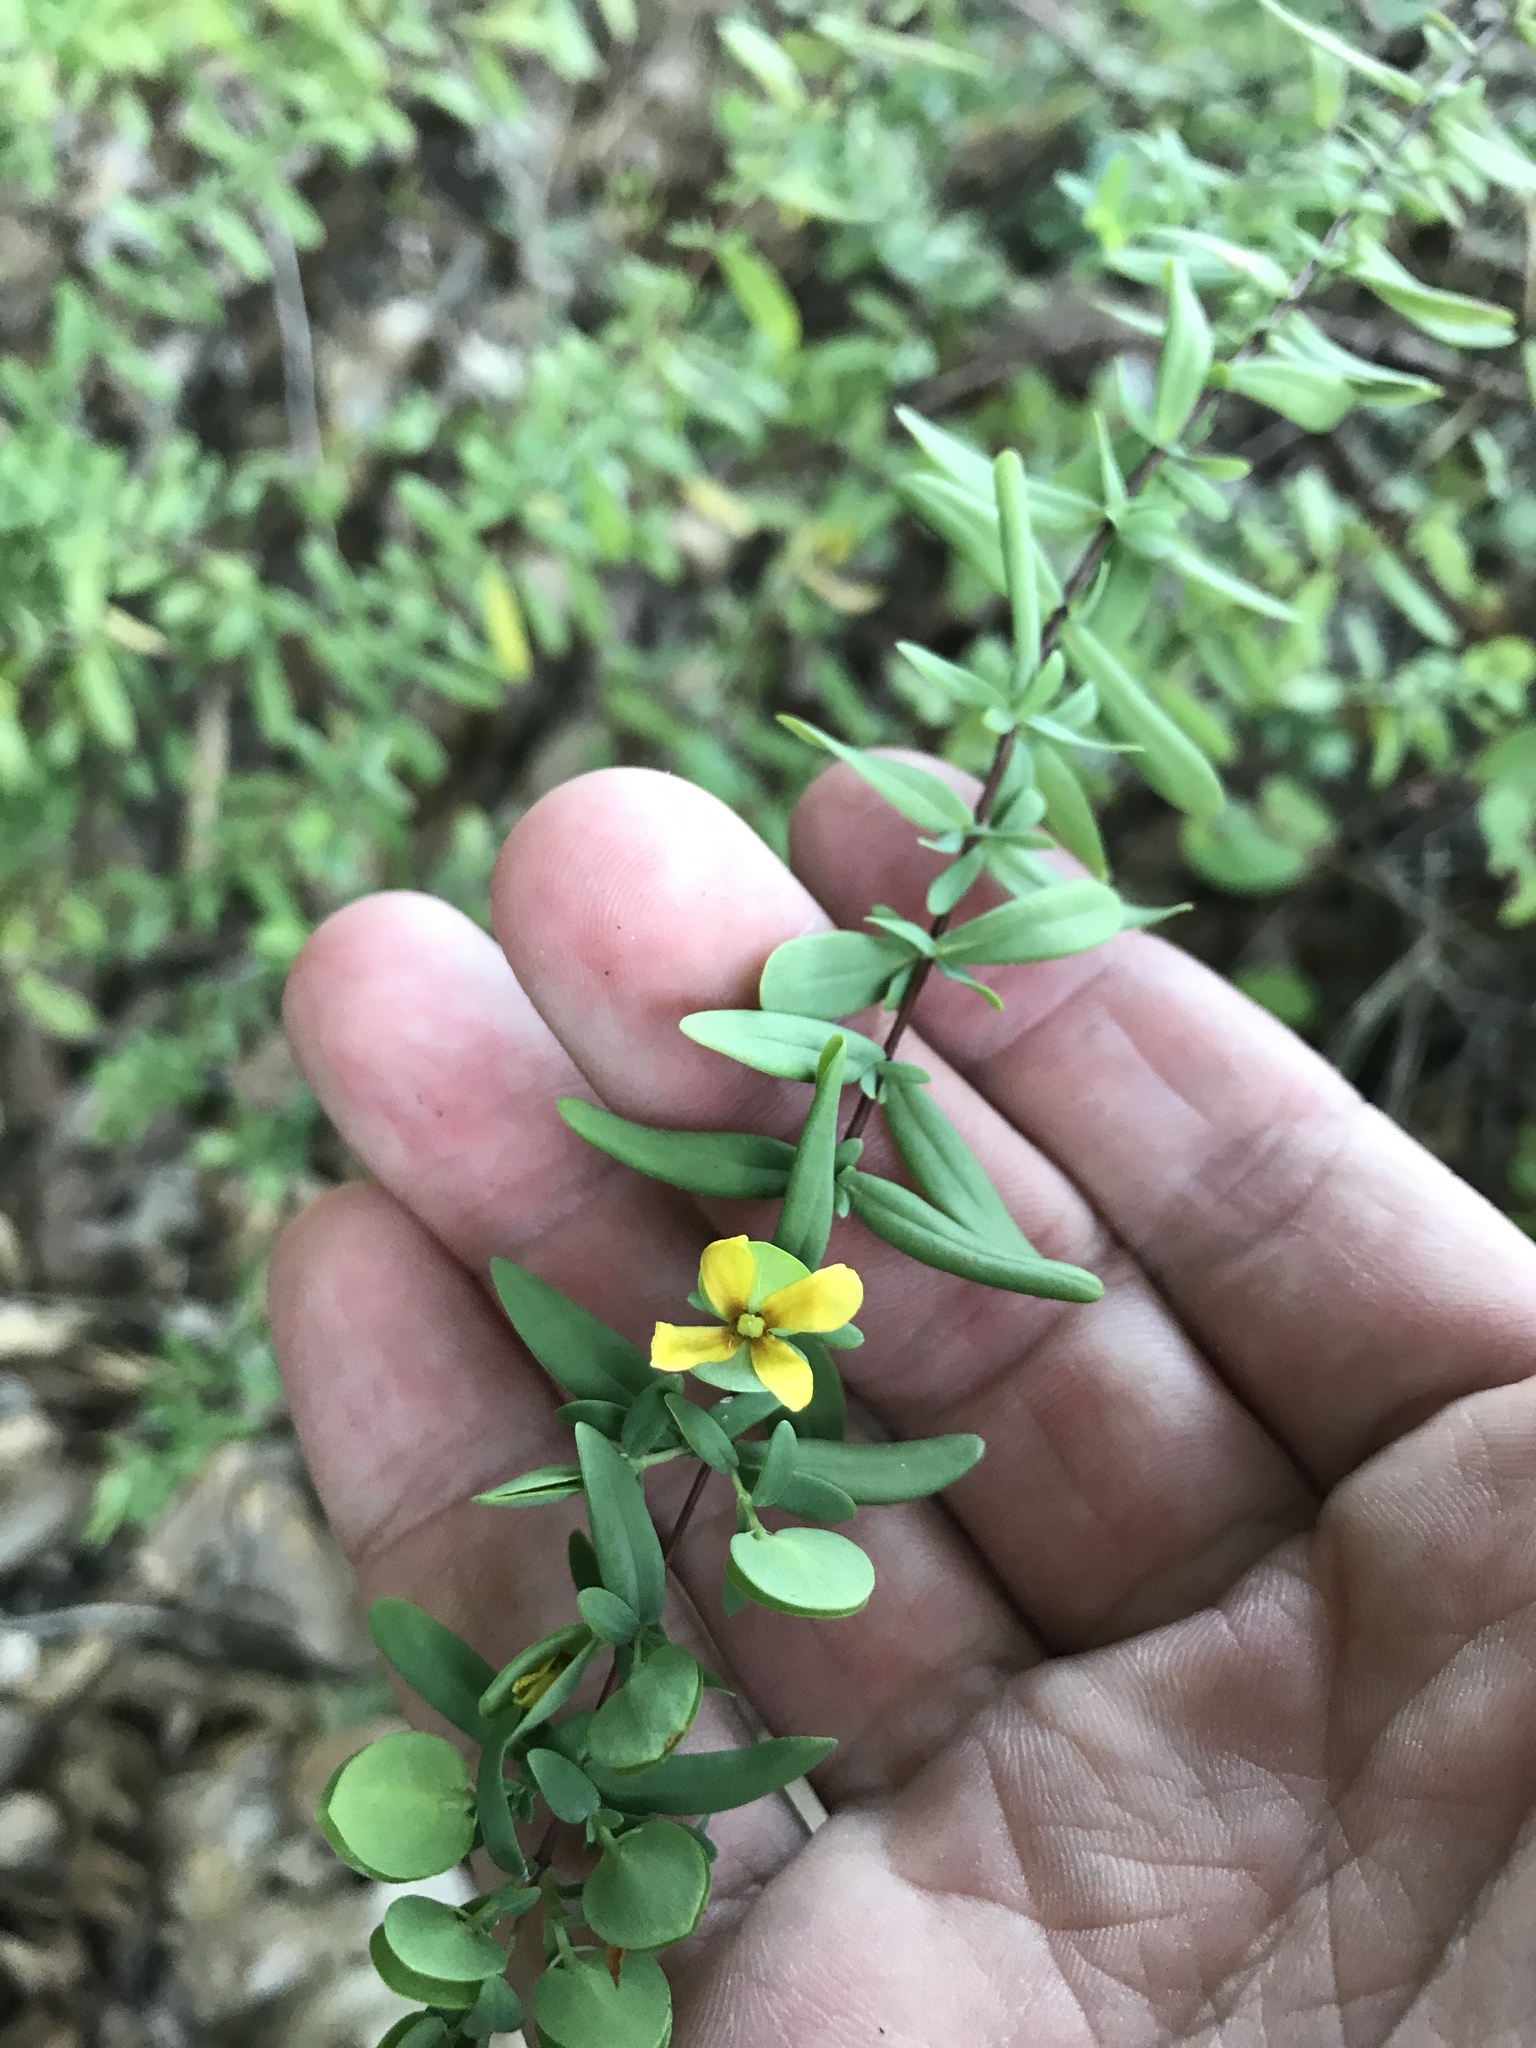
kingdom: Plantae
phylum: Tracheophyta
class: Magnoliopsida
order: Malpighiales
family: Hypericaceae
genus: Hypericum
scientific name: Hypericum hypericoides
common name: St. andrew's cross
